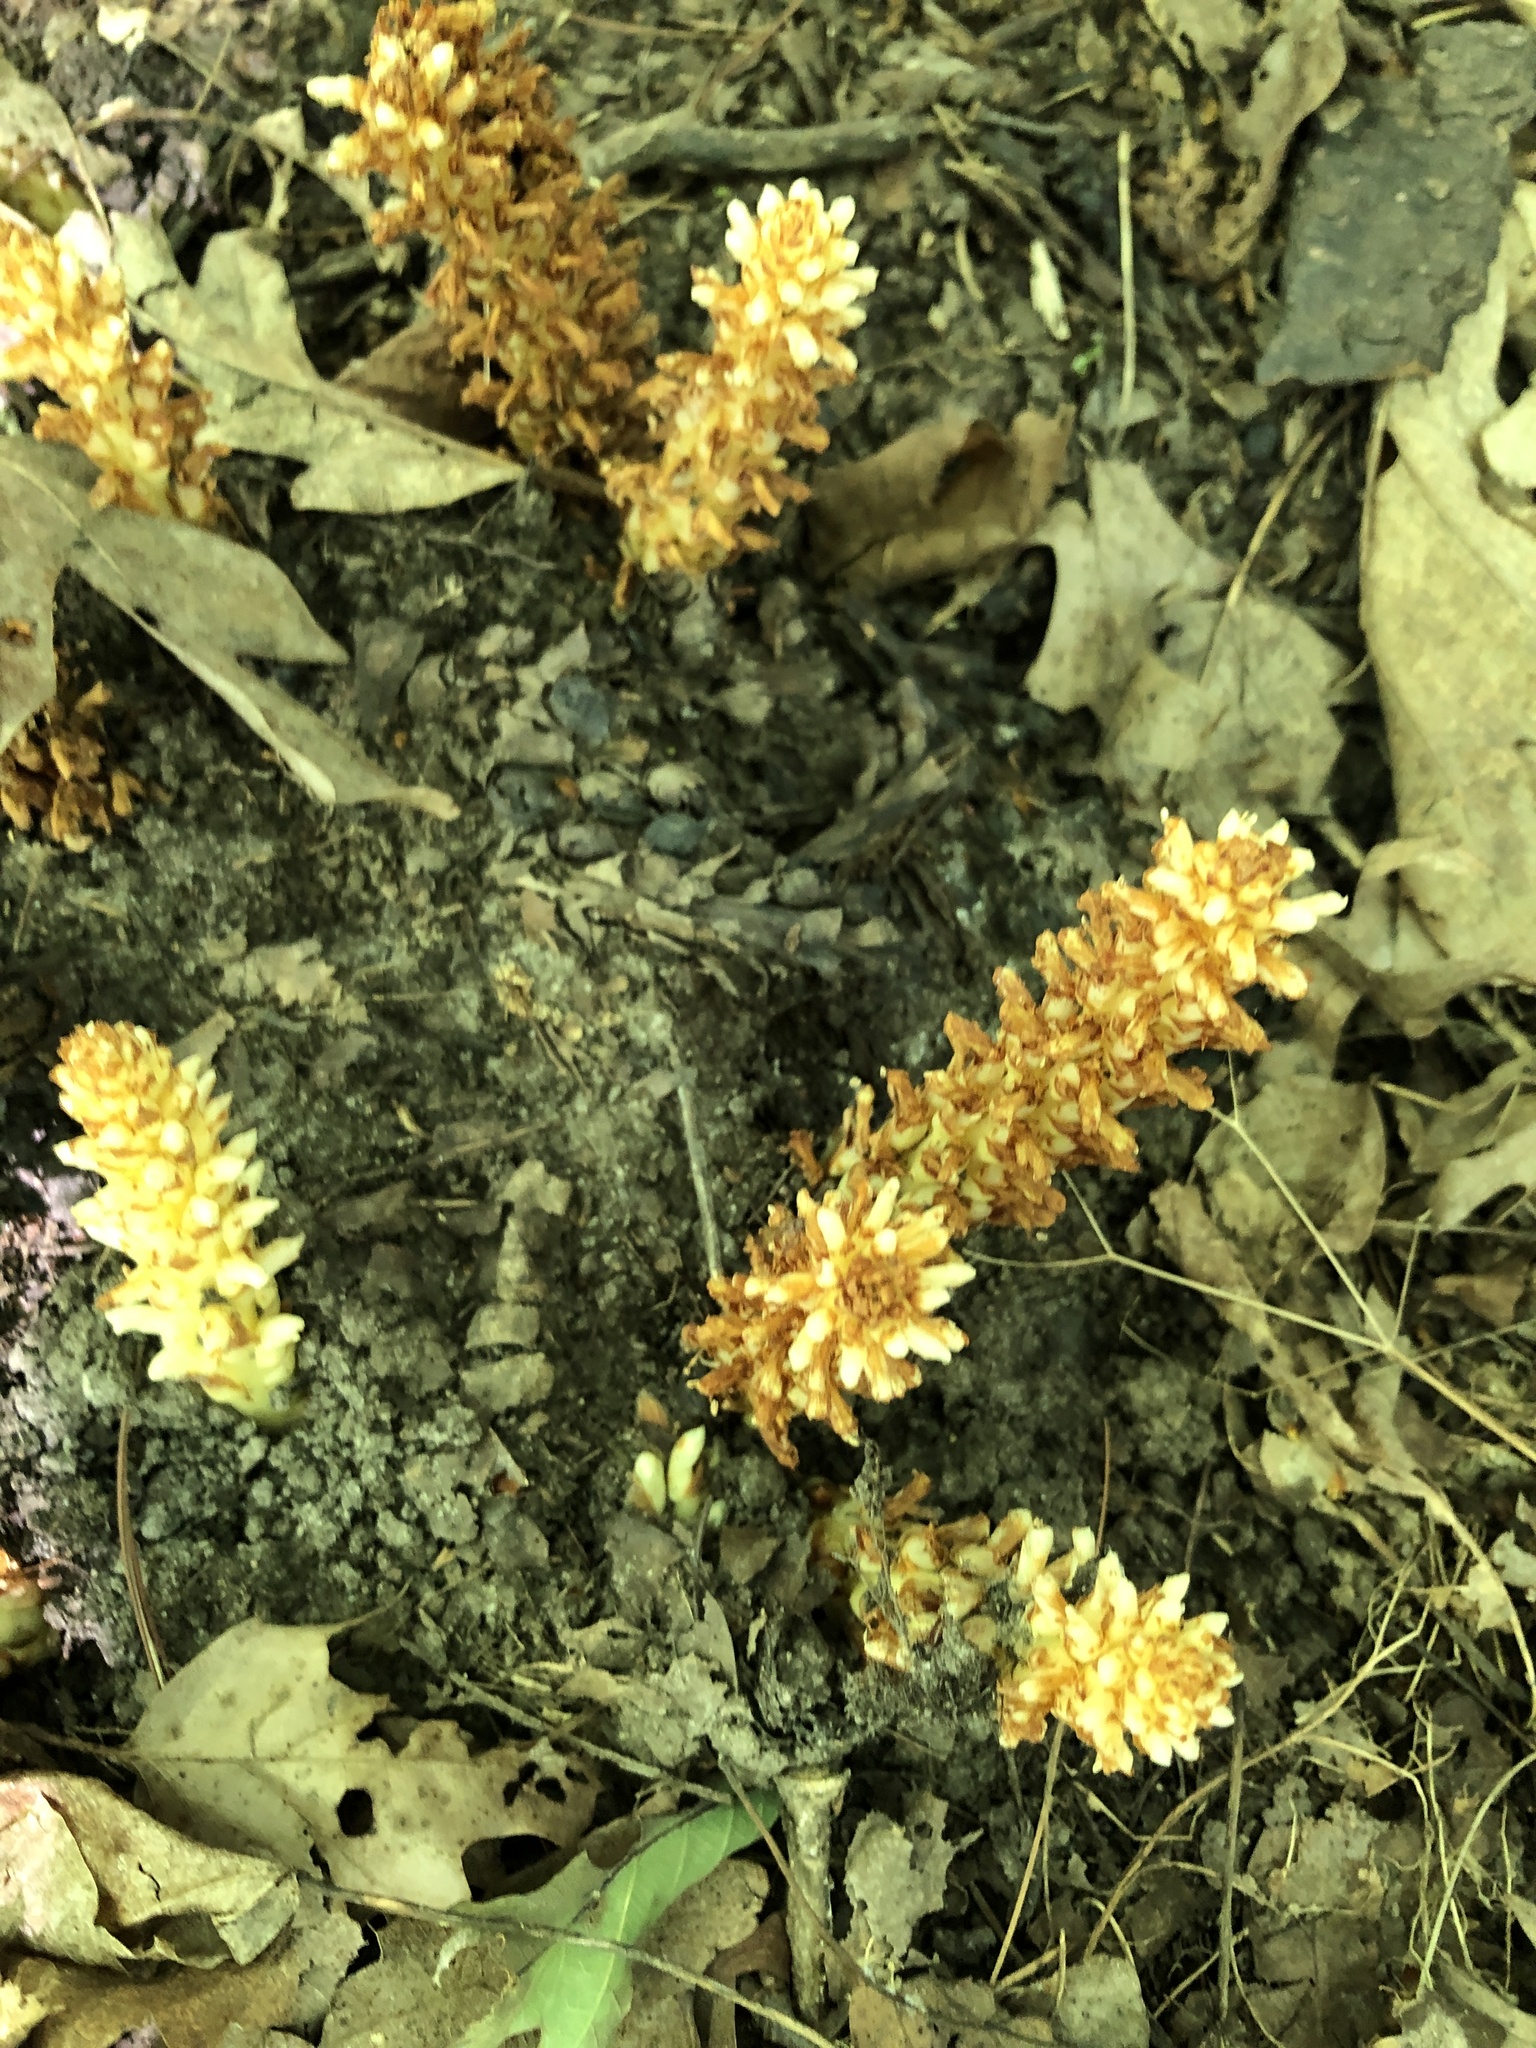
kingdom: Plantae
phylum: Tracheophyta
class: Magnoliopsida
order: Lamiales
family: Orobanchaceae
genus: Conopholis
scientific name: Conopholis americana
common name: American cancer-root
